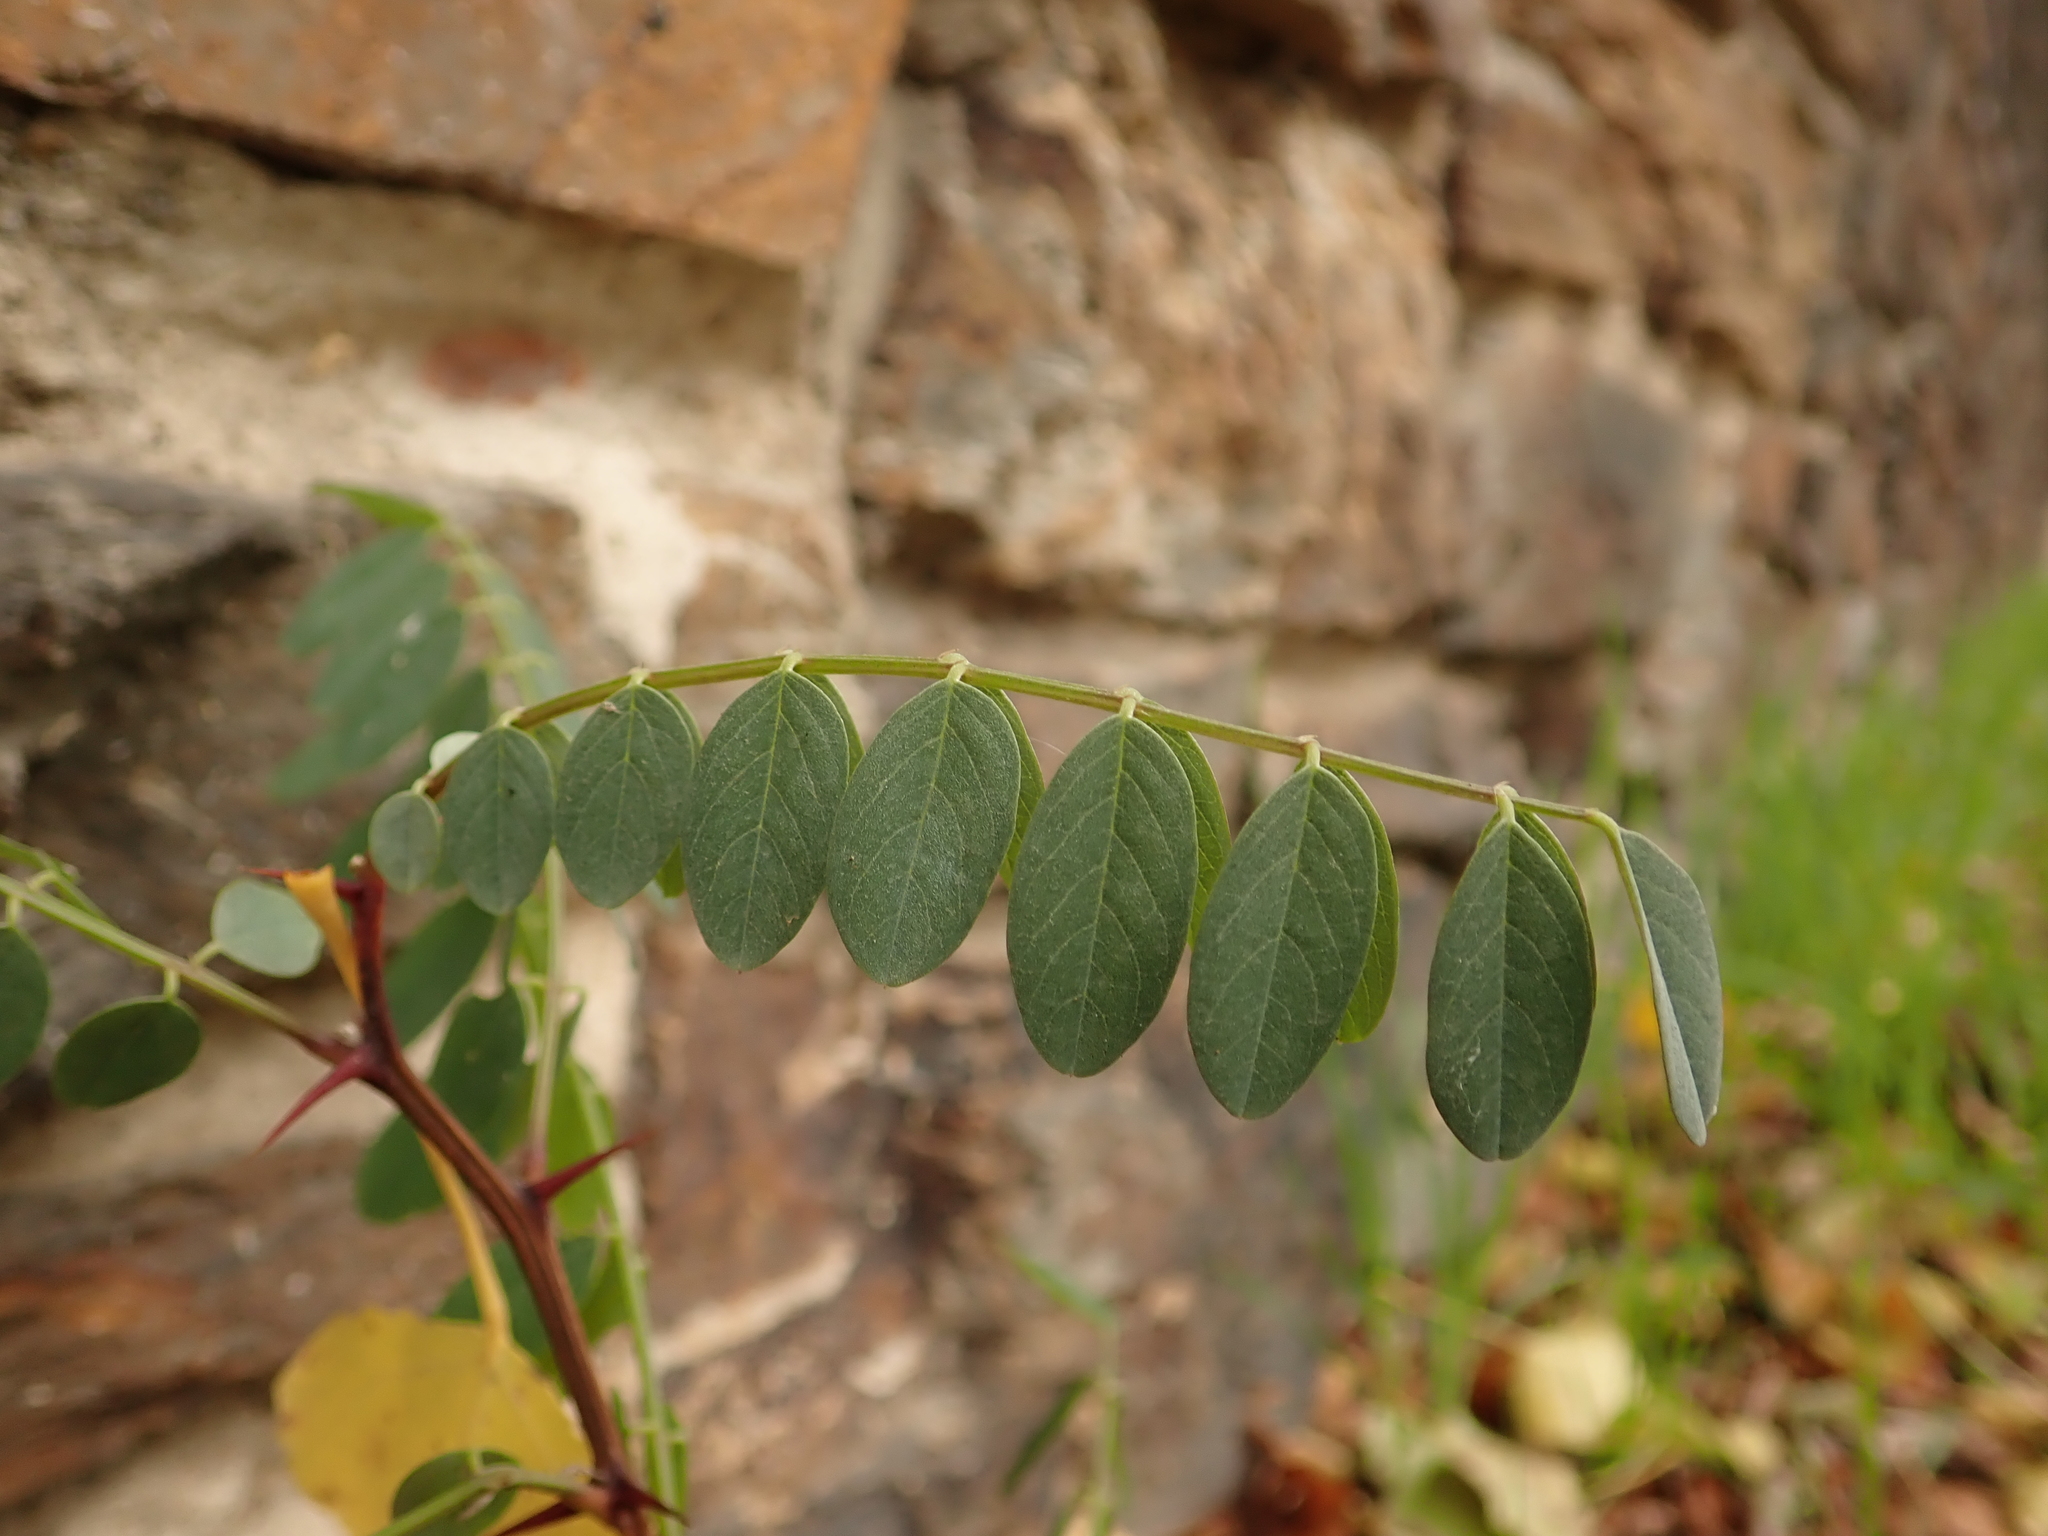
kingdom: Plantae
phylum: Tracheophyta
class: Magnoliopsida
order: Fabales
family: Fabaceae
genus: Robinia
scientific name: Robinia pseudoacacia
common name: Black locust
